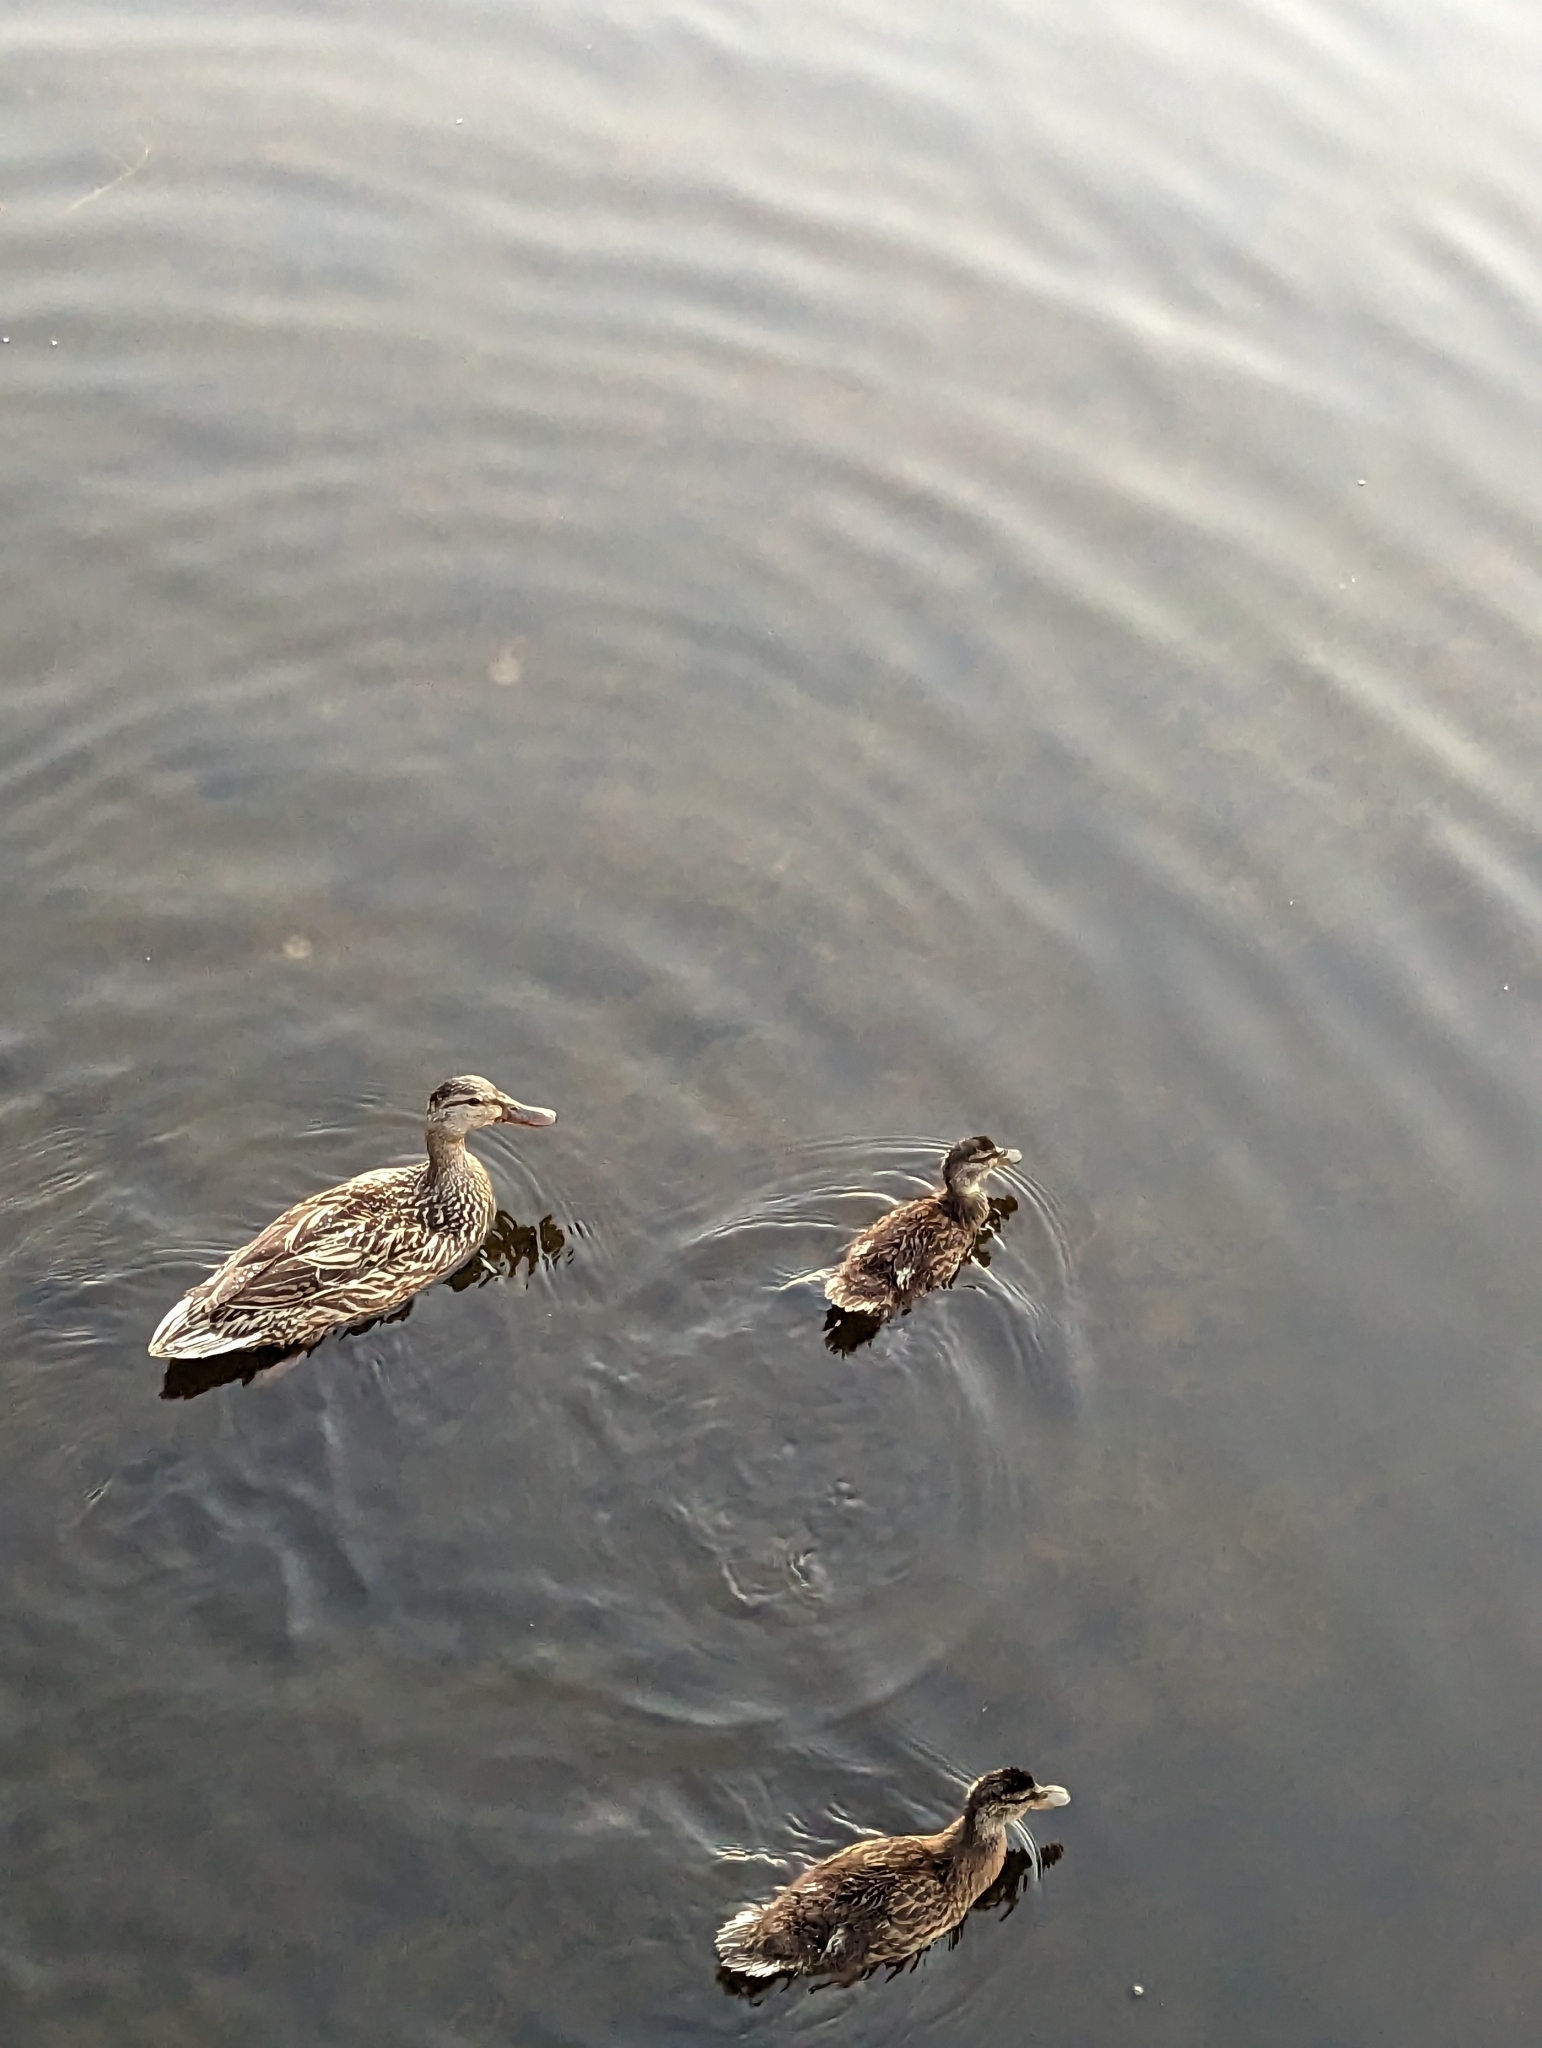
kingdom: Animalia
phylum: Chordata
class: Aves
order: Anseriformes
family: Anatidae
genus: Anas
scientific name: Anas platyrhynchos
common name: Mallard
